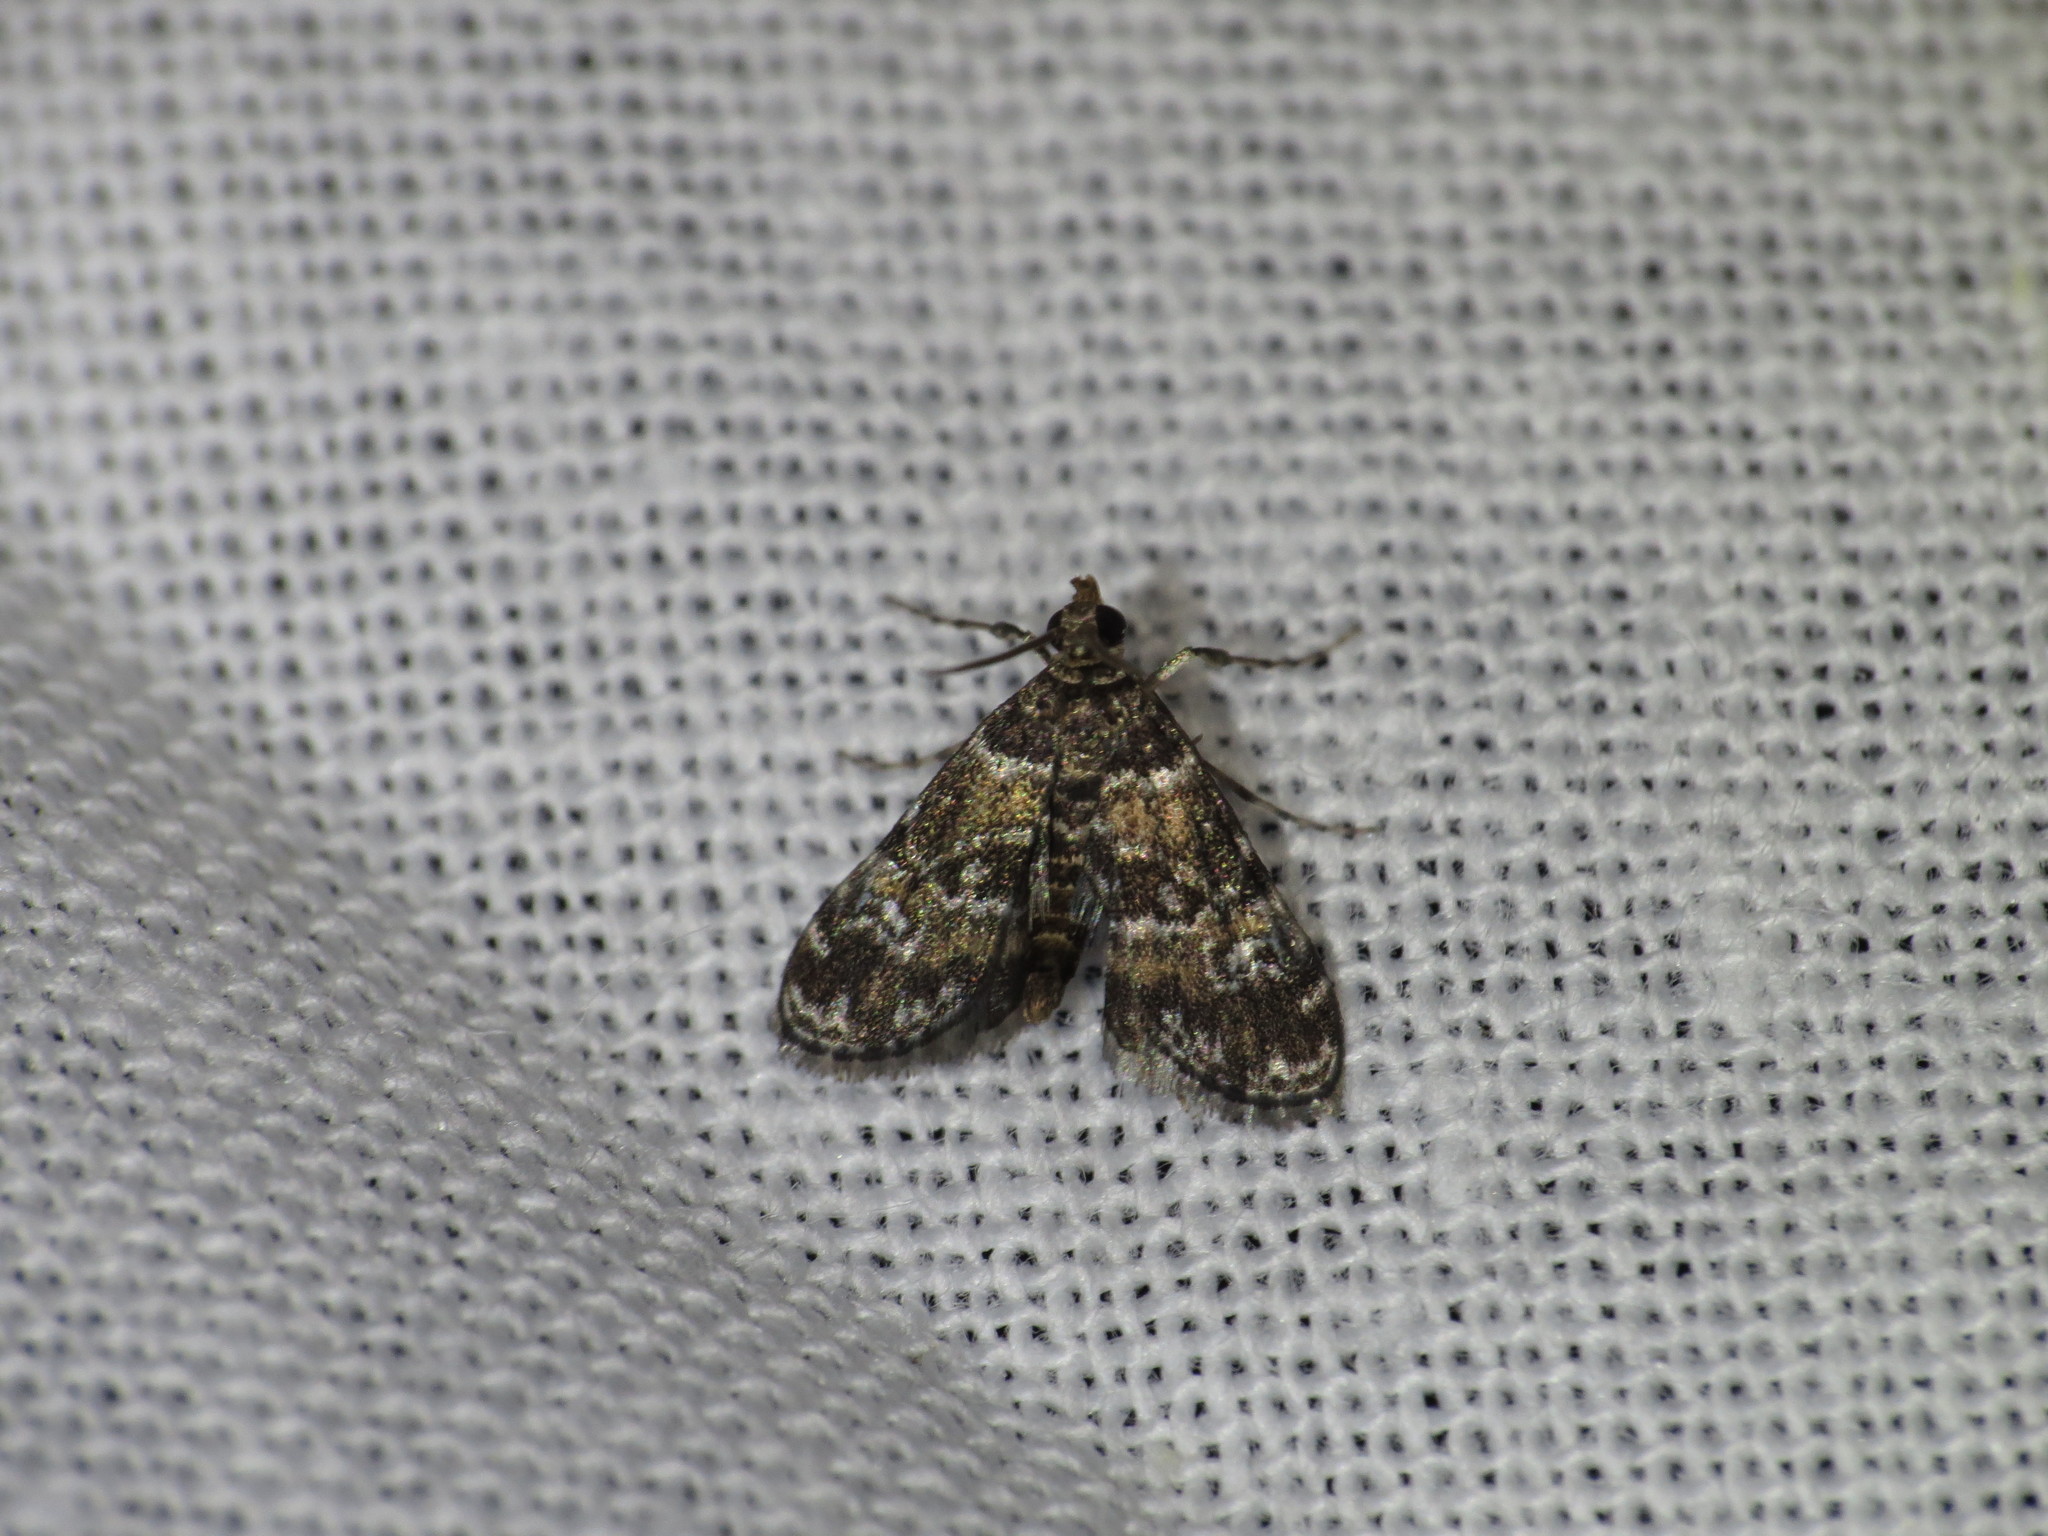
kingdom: Animalia
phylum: Arthropoda
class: Insecta
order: Lepidoptera
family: Crambidae
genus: Elophila
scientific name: Elophila obliteralis
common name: Waterlily leafcutter moth
